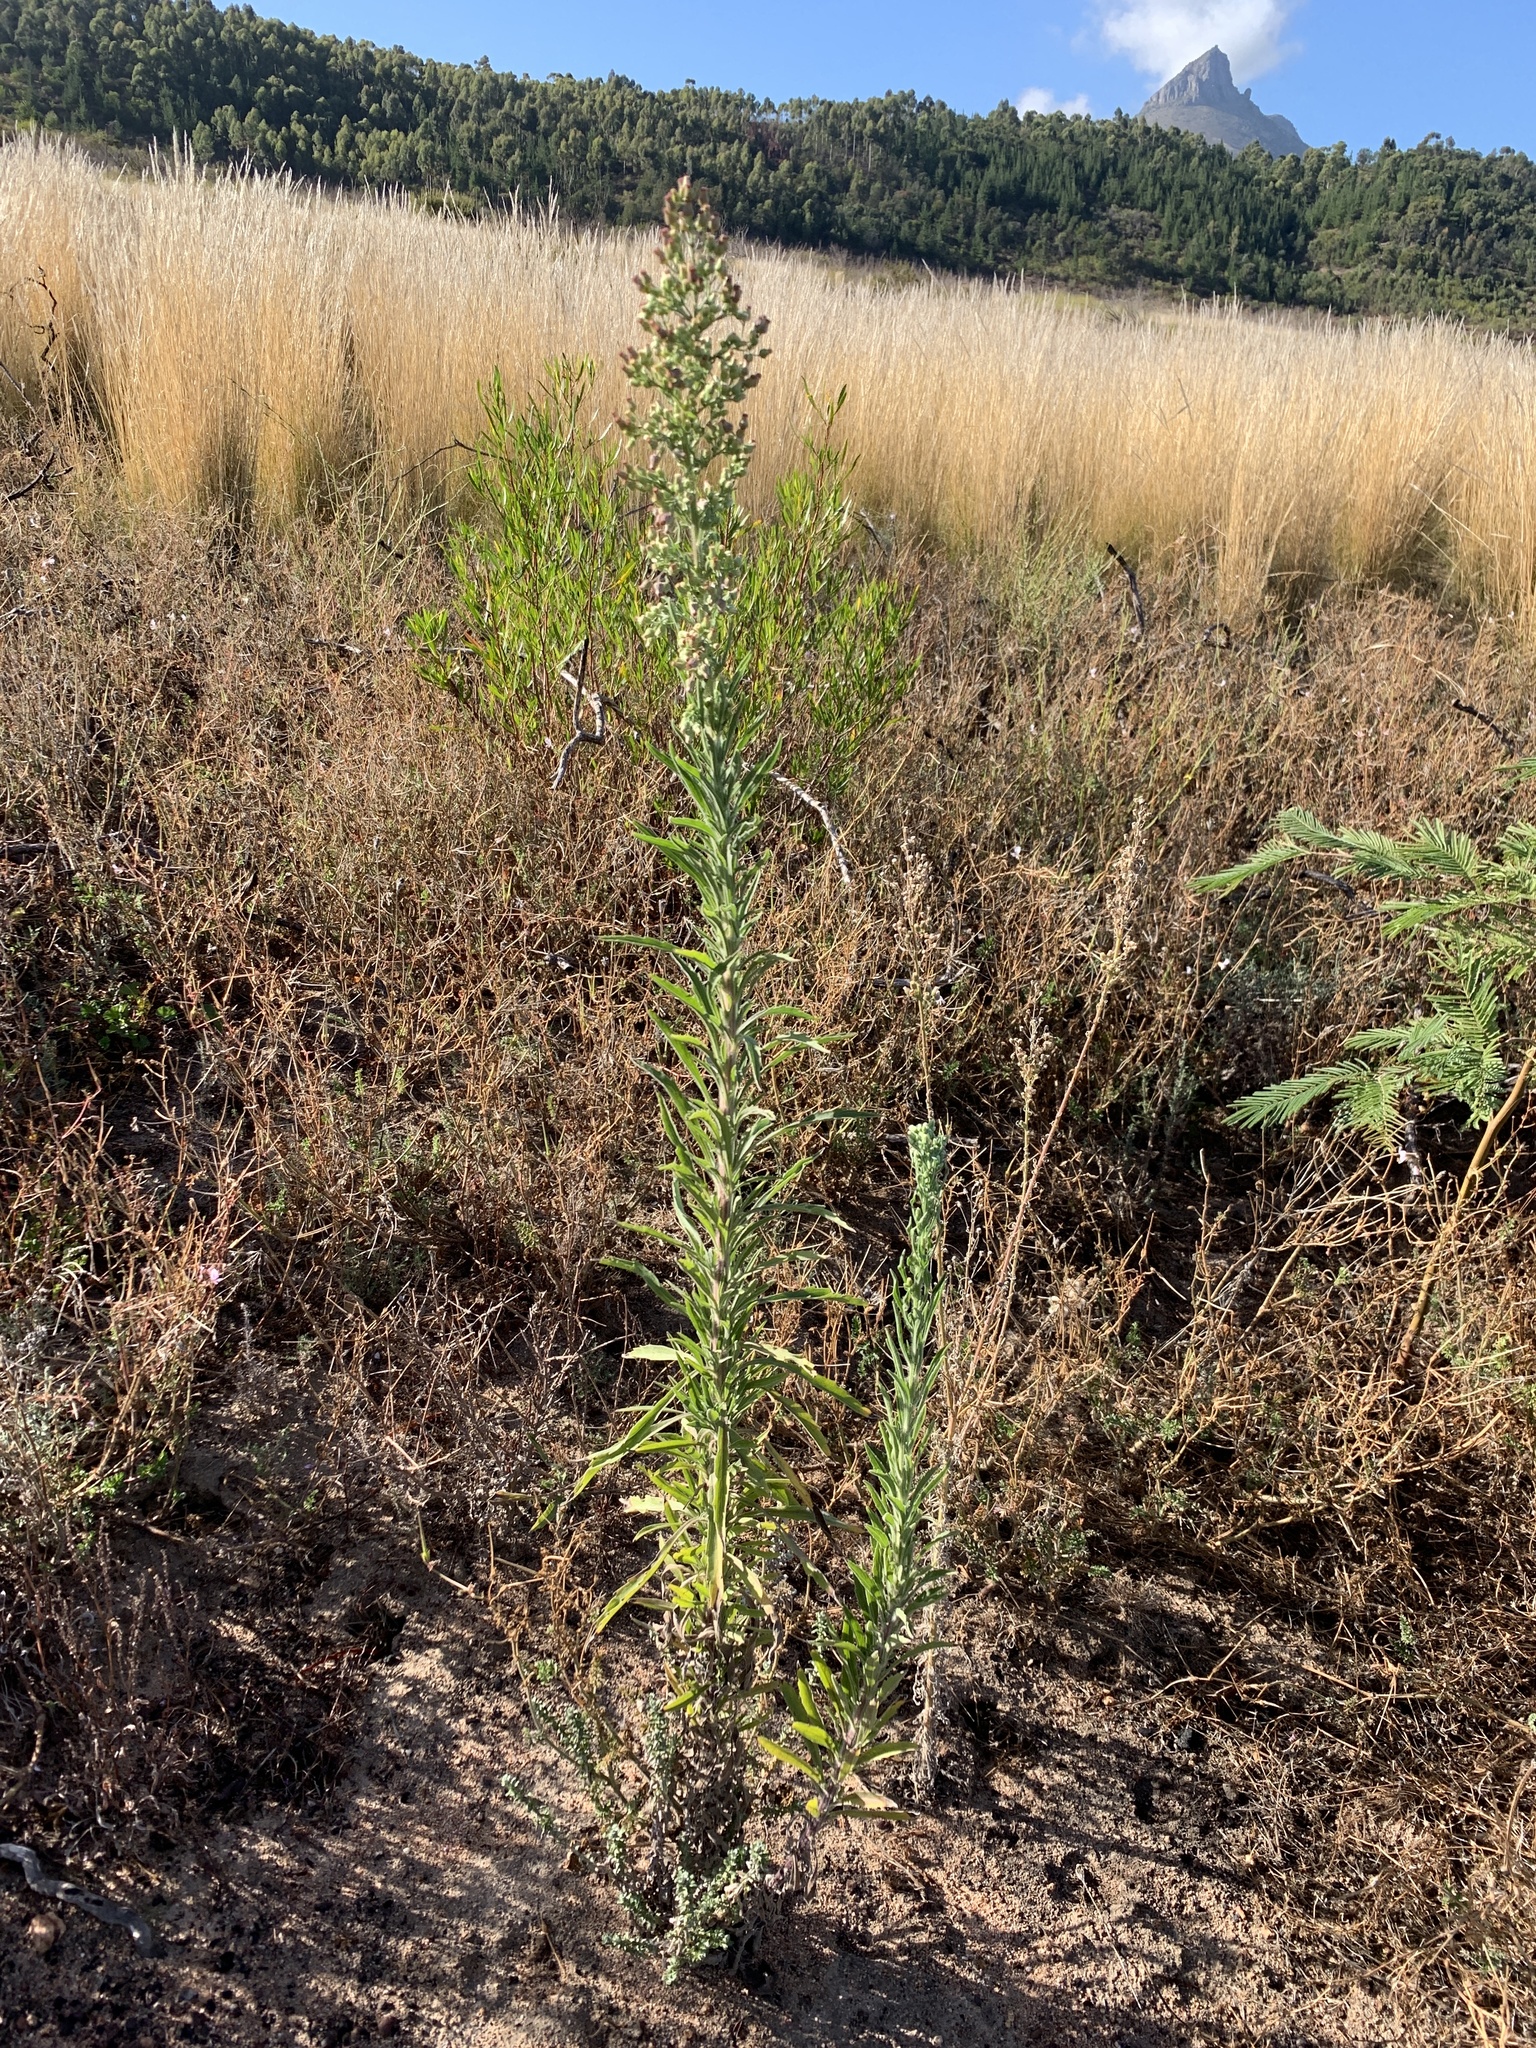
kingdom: Plantae
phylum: Tracheophyta
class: Magnoliopsida
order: Asterales
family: Asteraceae
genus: Erigeron
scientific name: Erigeron sumatrensis
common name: Daisy
